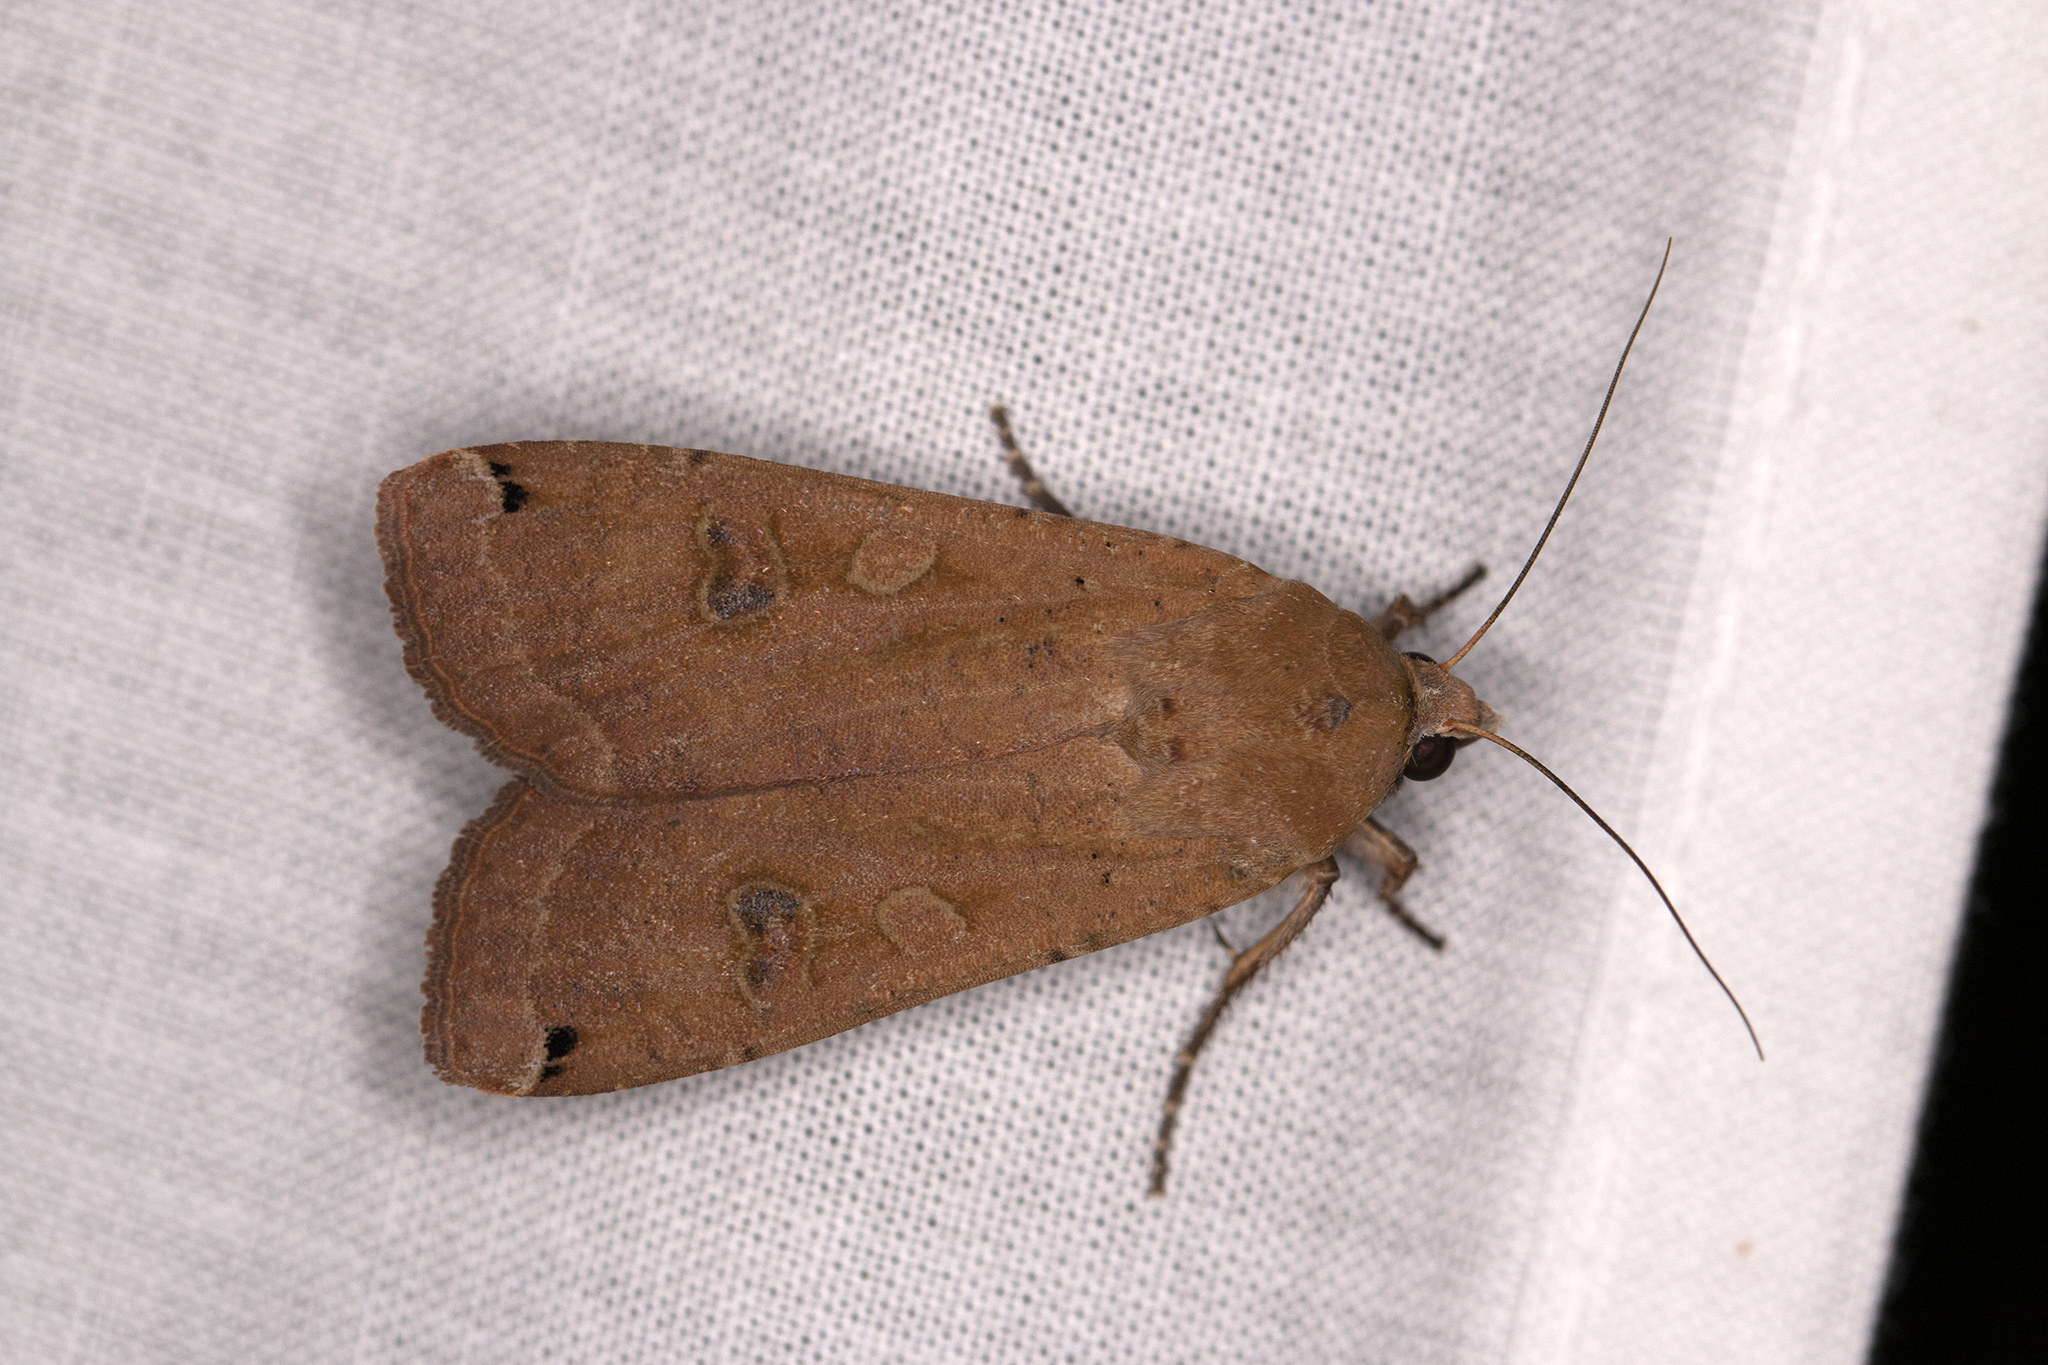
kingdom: Animalia
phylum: Arthropoda
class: Insecta
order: Lepidoptera
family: Noctuidae
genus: Noctua
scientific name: Noctua pronuba
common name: Large yellow underwing
